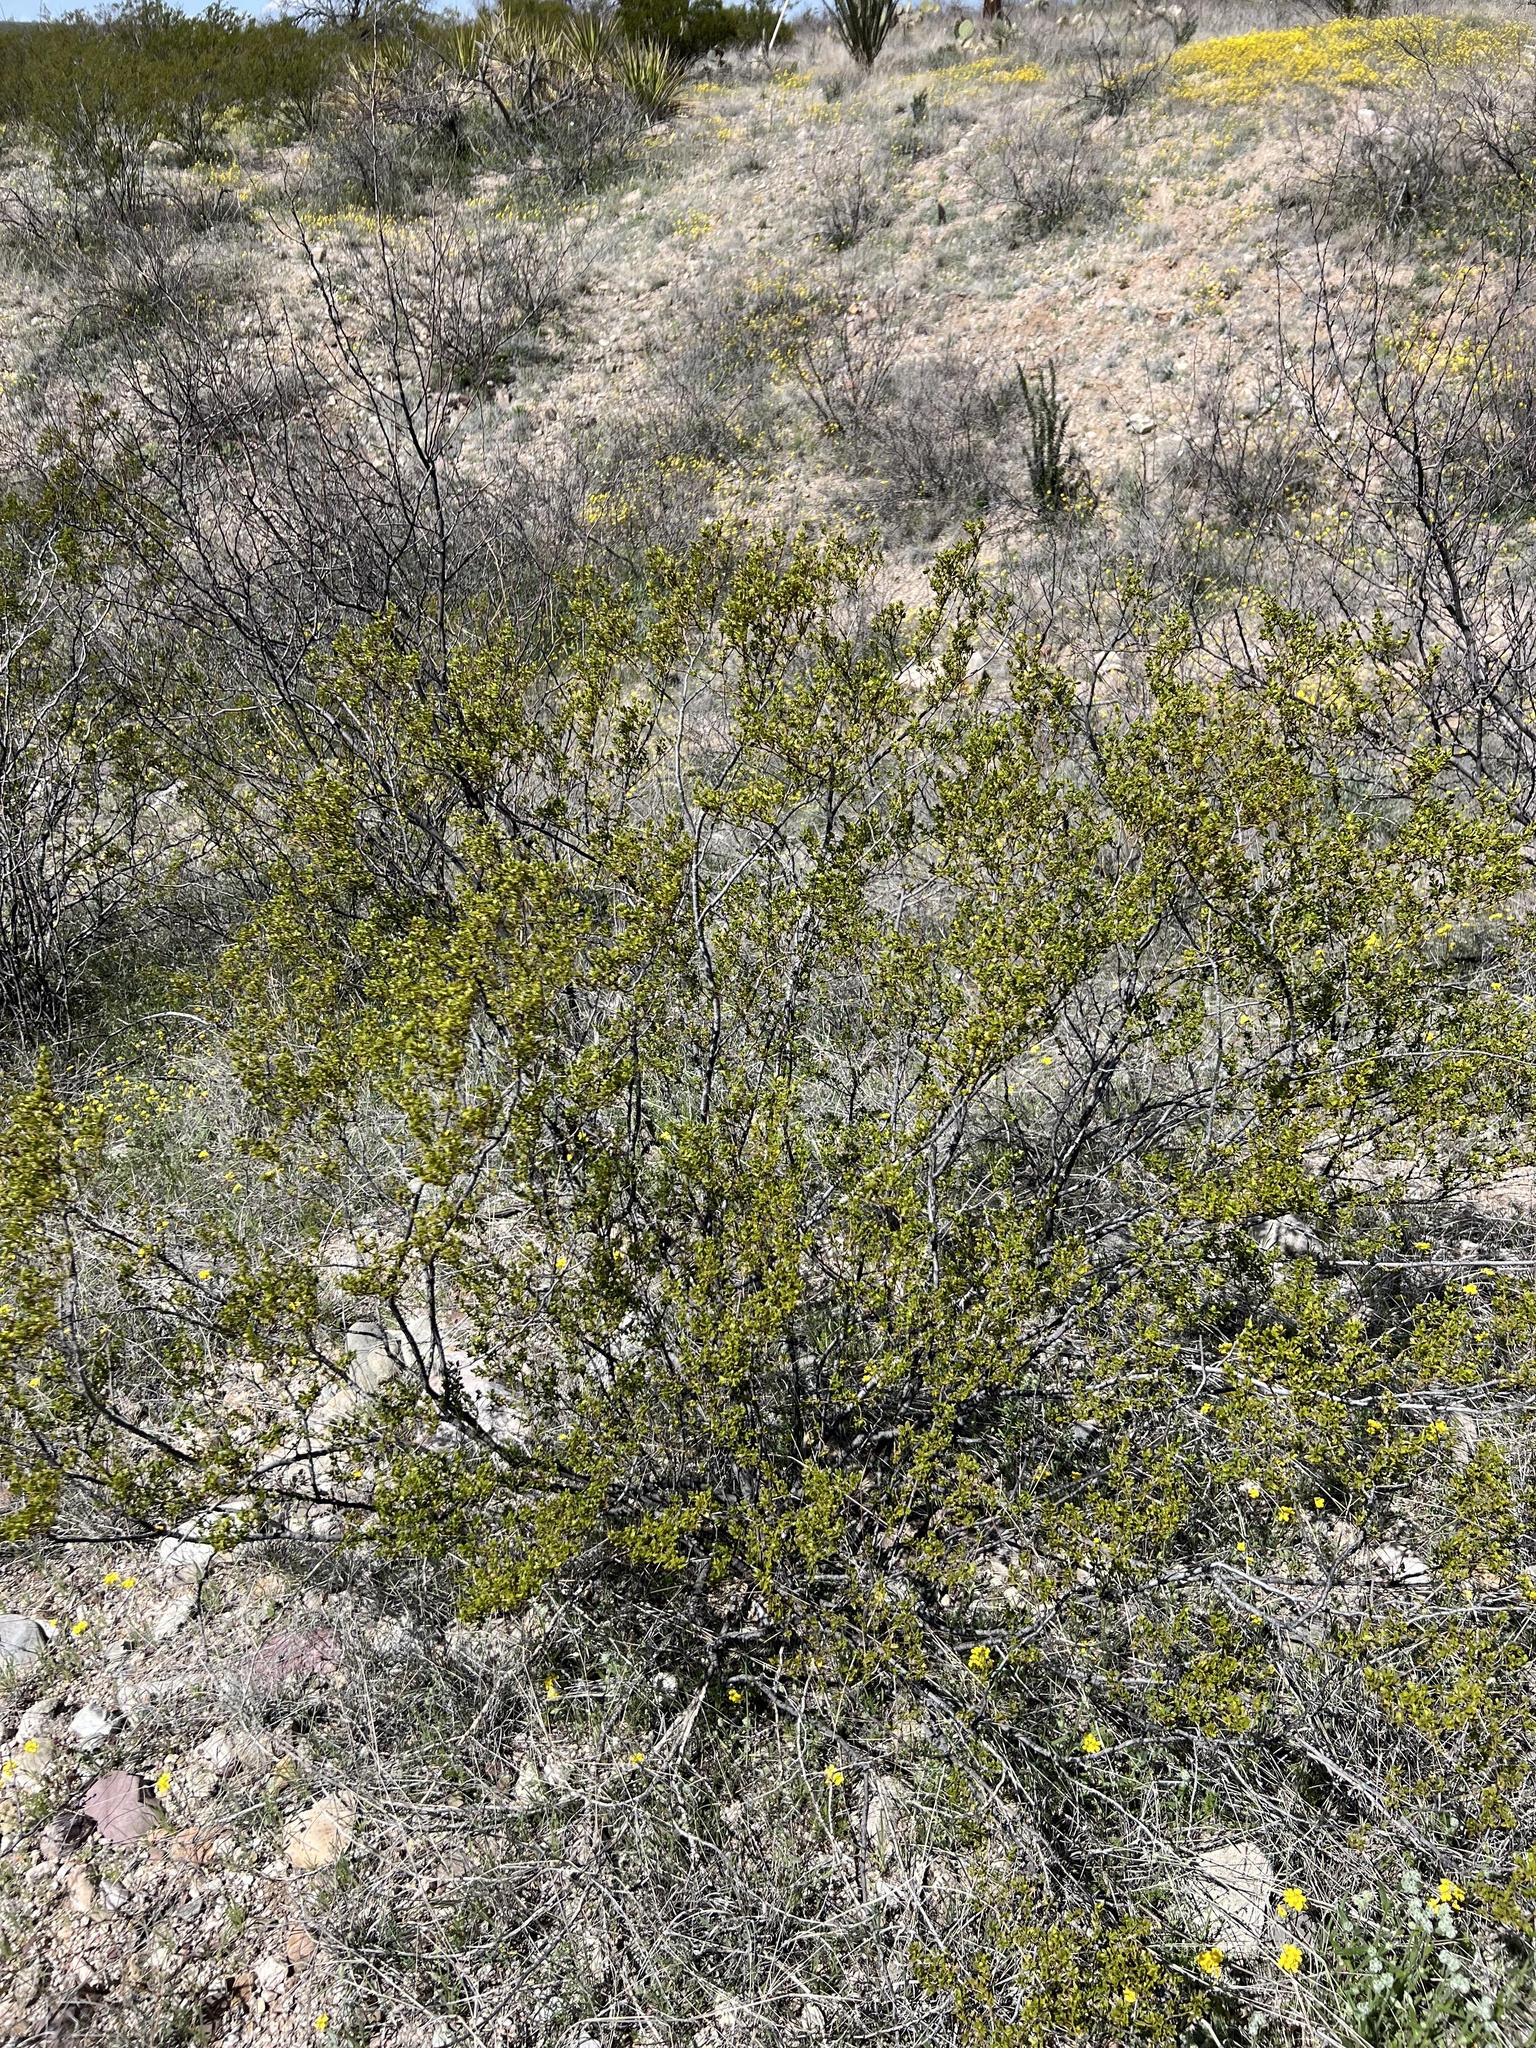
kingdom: Plantae
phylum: Tracheophyta
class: Magnoliopsida
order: Zygophyllales
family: Zygophyllaceae
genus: Larrea
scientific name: Larrea tridentata
